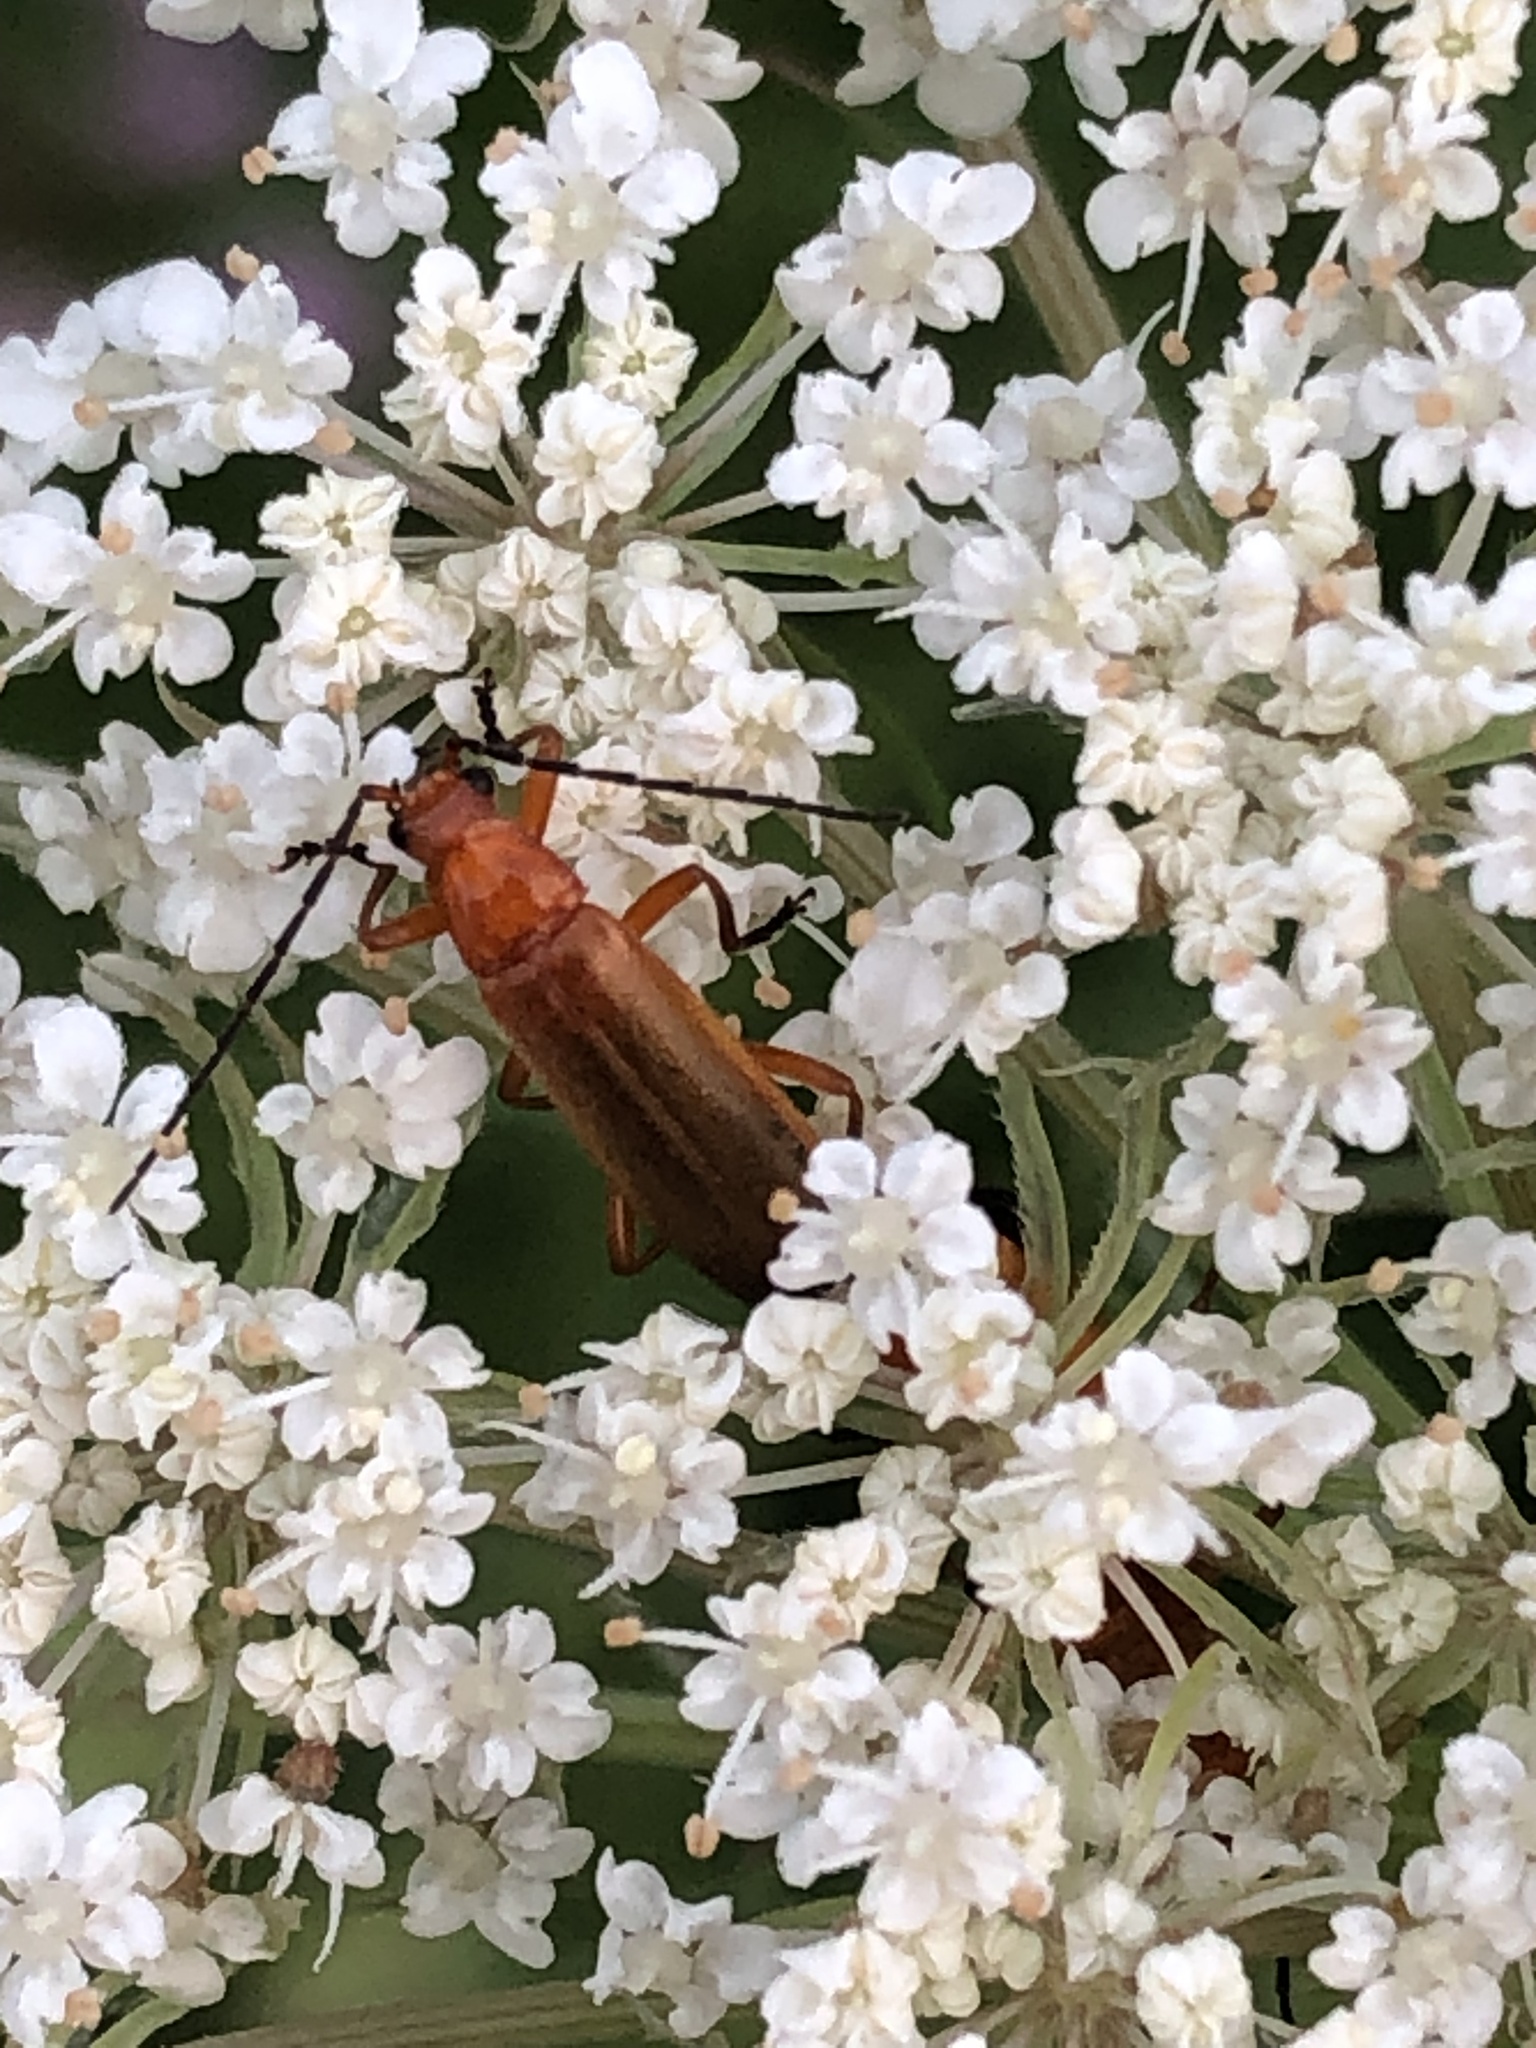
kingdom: Animalia
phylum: Arthropoda
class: Insecta
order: Coleoptera
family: Cantharidae
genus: Rhagonycha
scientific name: Rhagonycha fulva
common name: Common red soldier beetle
